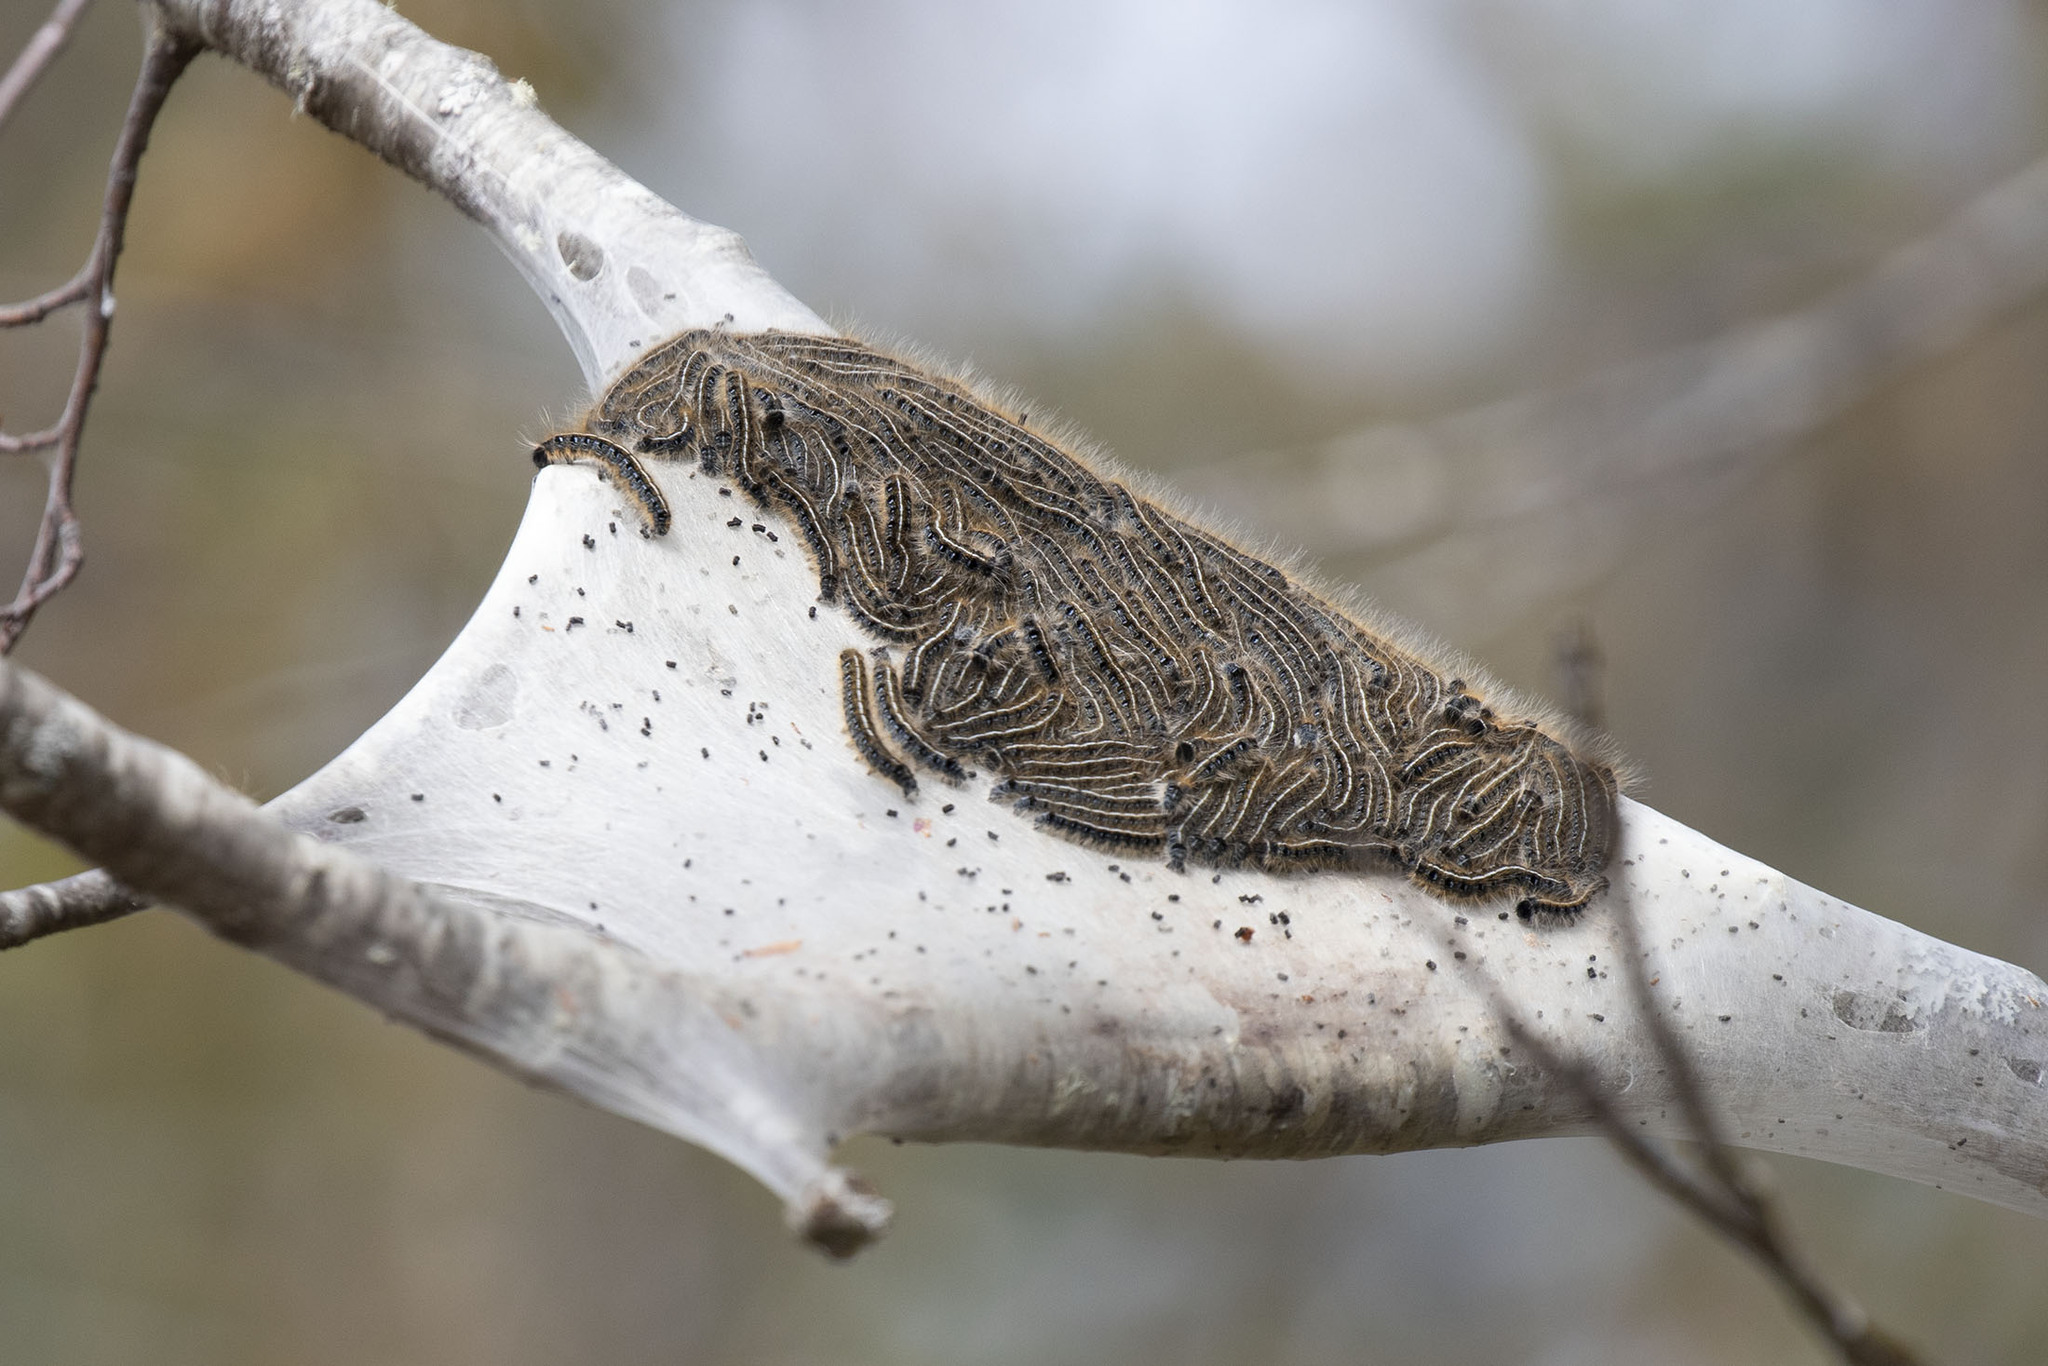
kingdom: Animalia
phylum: Arthropoda
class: Insecta
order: Lepidoptera
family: Lasiocampidae
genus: Malacosoma
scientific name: Malacosoma americana
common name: Eastern tent caterpillar moth
